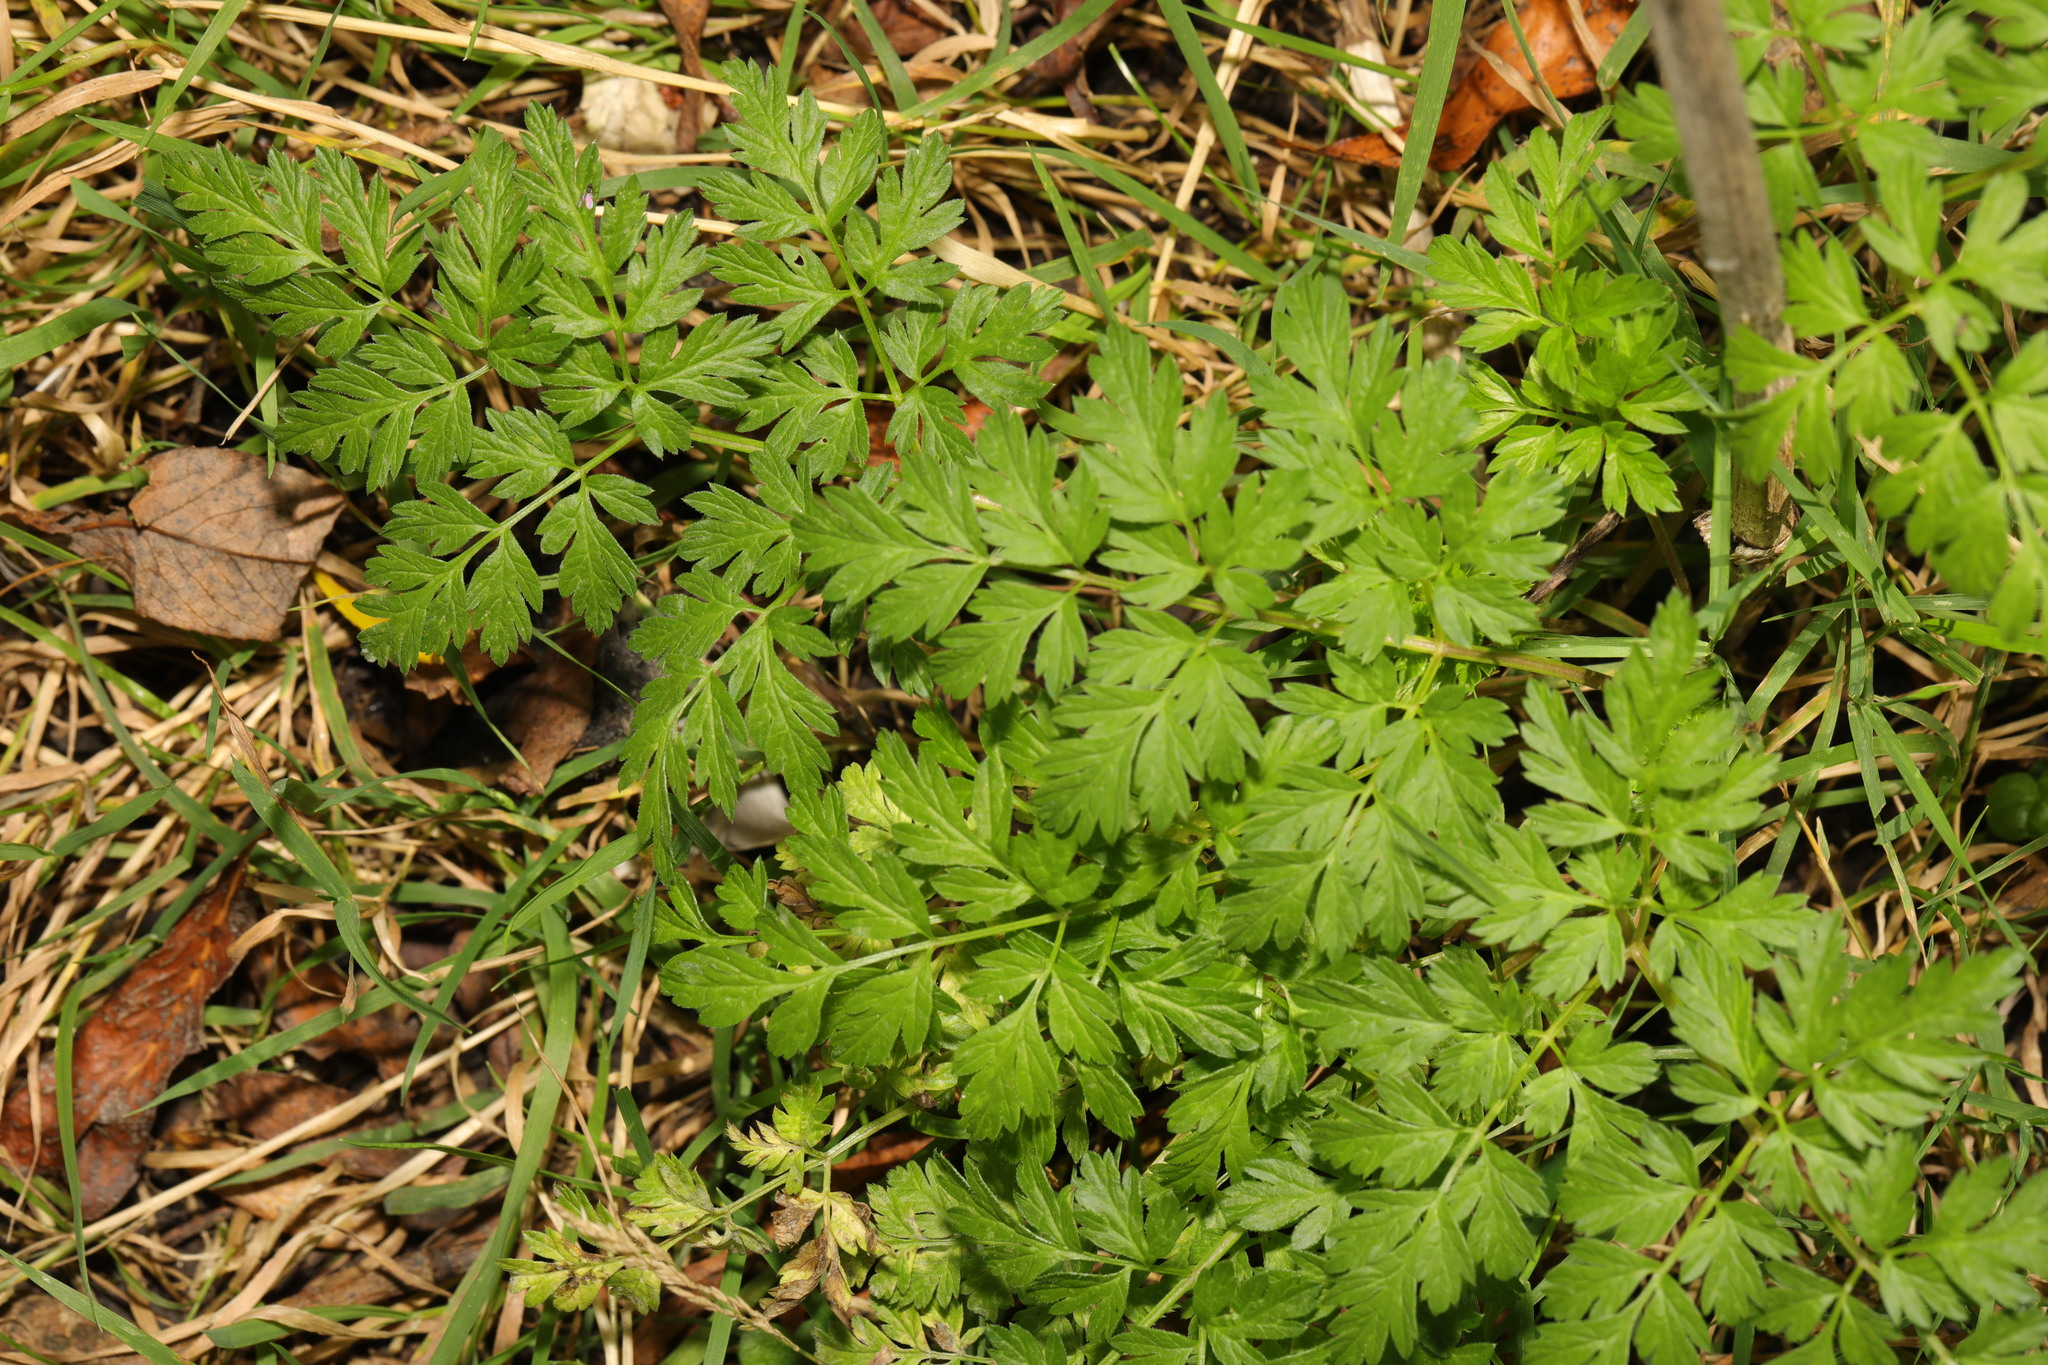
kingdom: Plantae
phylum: Tracheophyta
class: Magnoliopsida
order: Apiales
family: Apiaceae
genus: Anthriscus
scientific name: Anthriscus sylvestris
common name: Cow parsley
